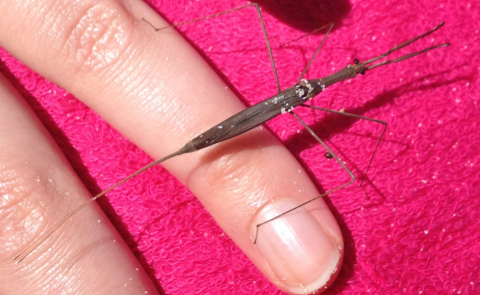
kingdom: Animalia
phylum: Arthropoda
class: Insecta
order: Hemiptera
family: Nepidae
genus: Ranatra
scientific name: Ranatra
